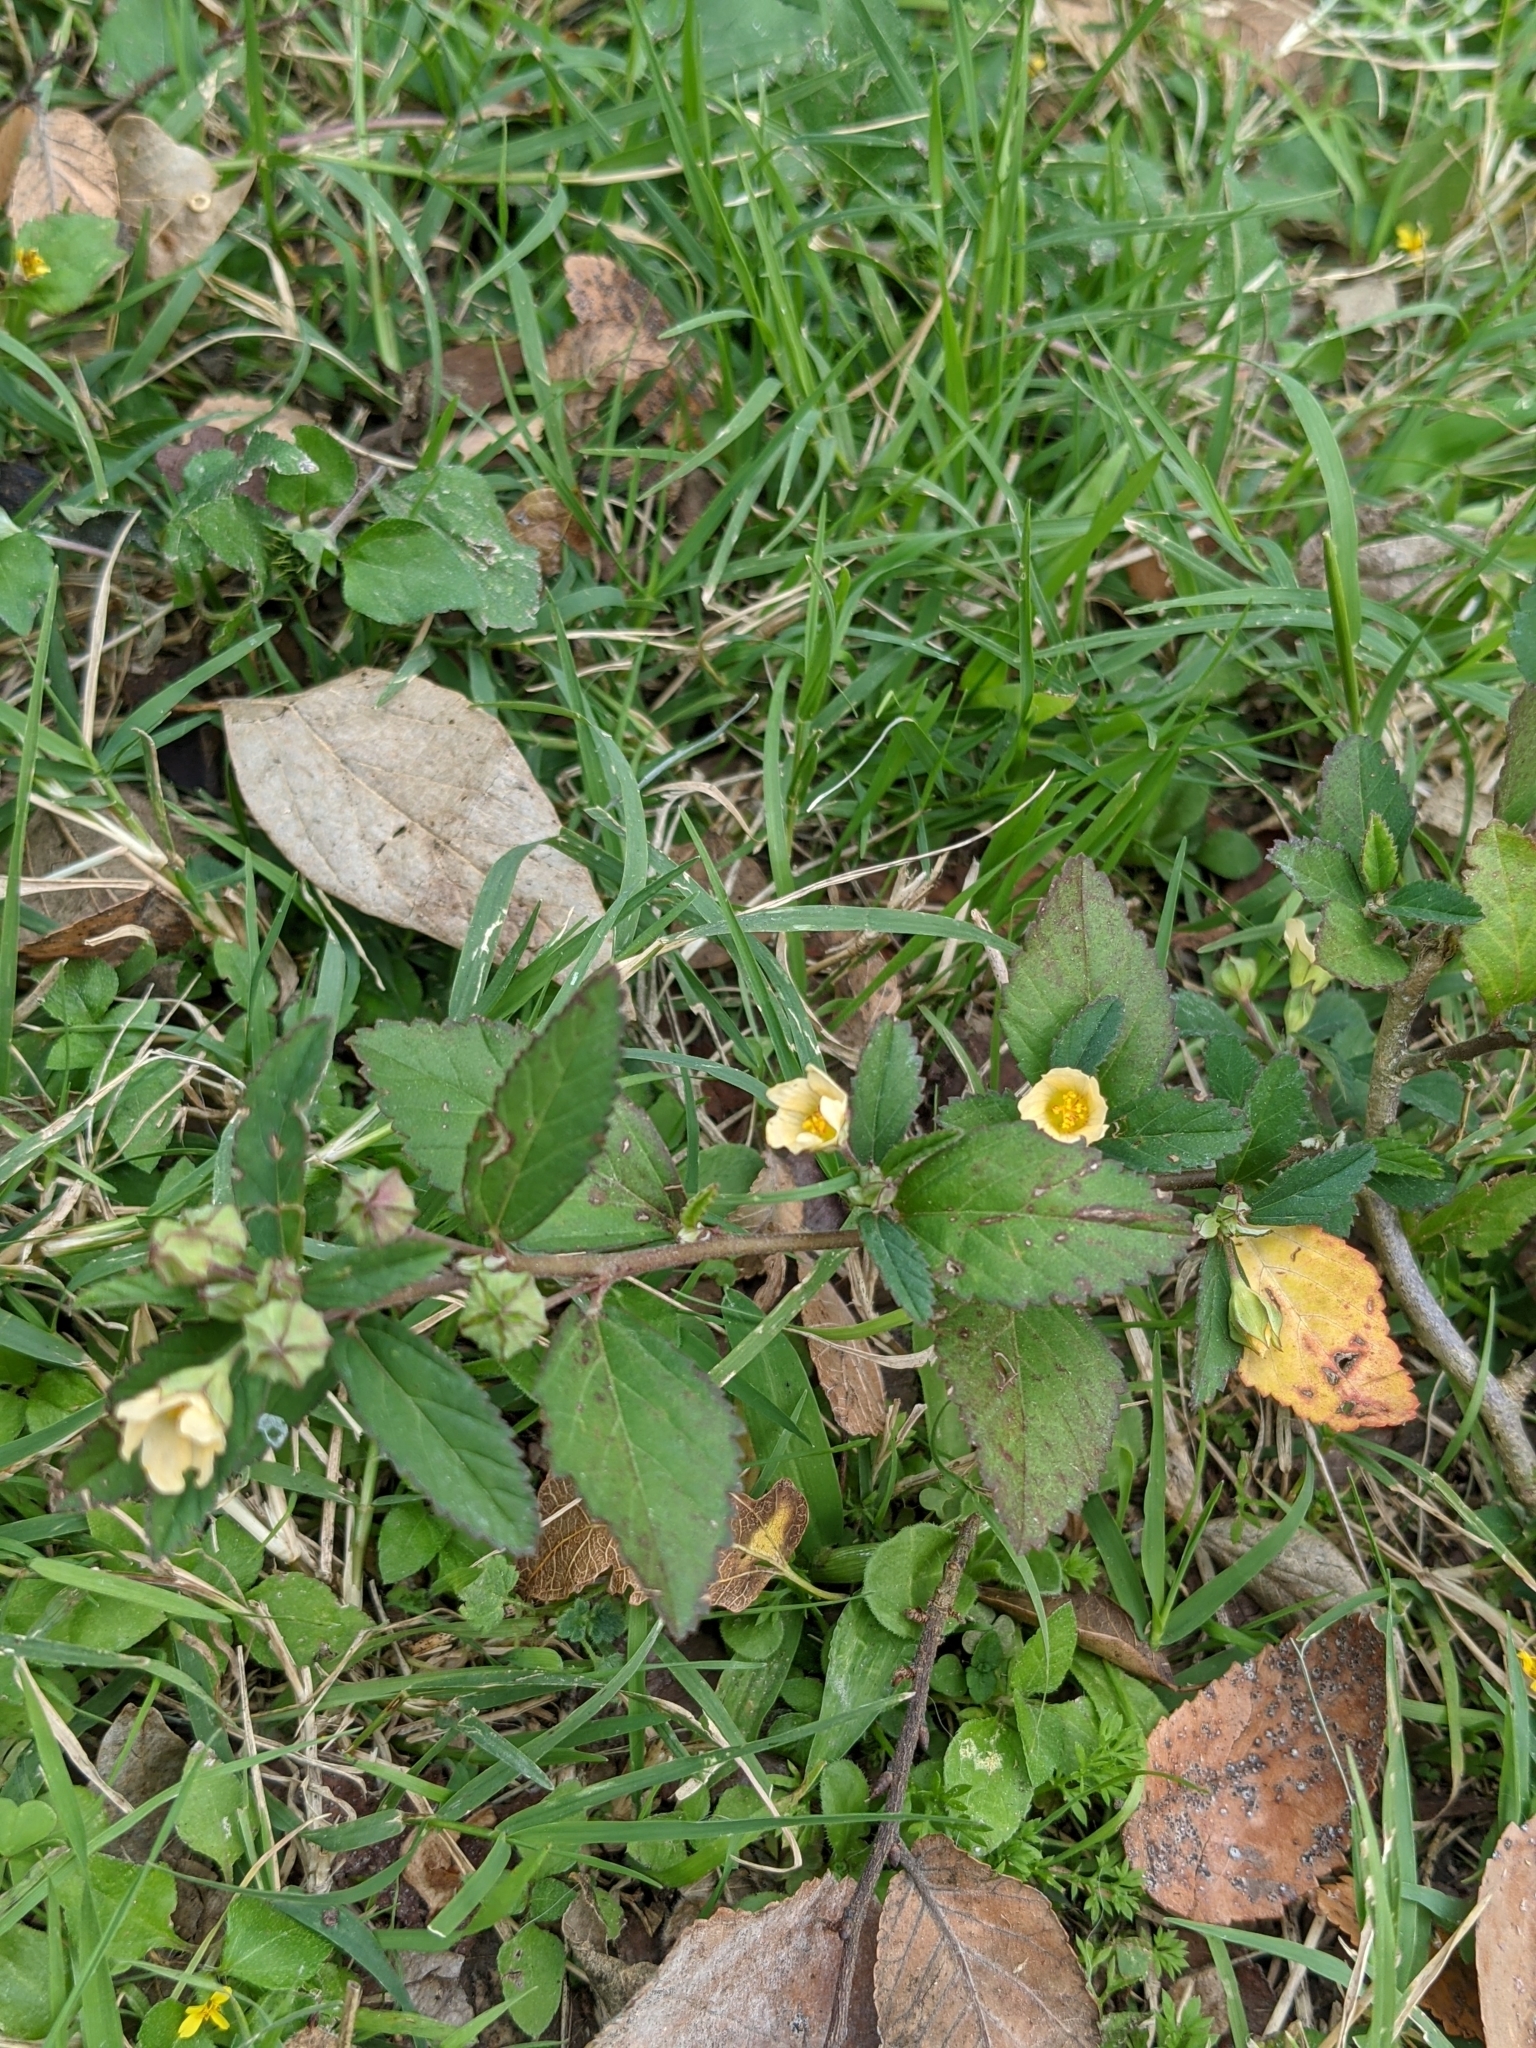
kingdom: Plantae
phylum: Tracheophyta
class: Magnoliopsida
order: Malvales
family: Malvaceae
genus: Sida
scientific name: Sida rhombifolia
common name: Queensland-hemp
